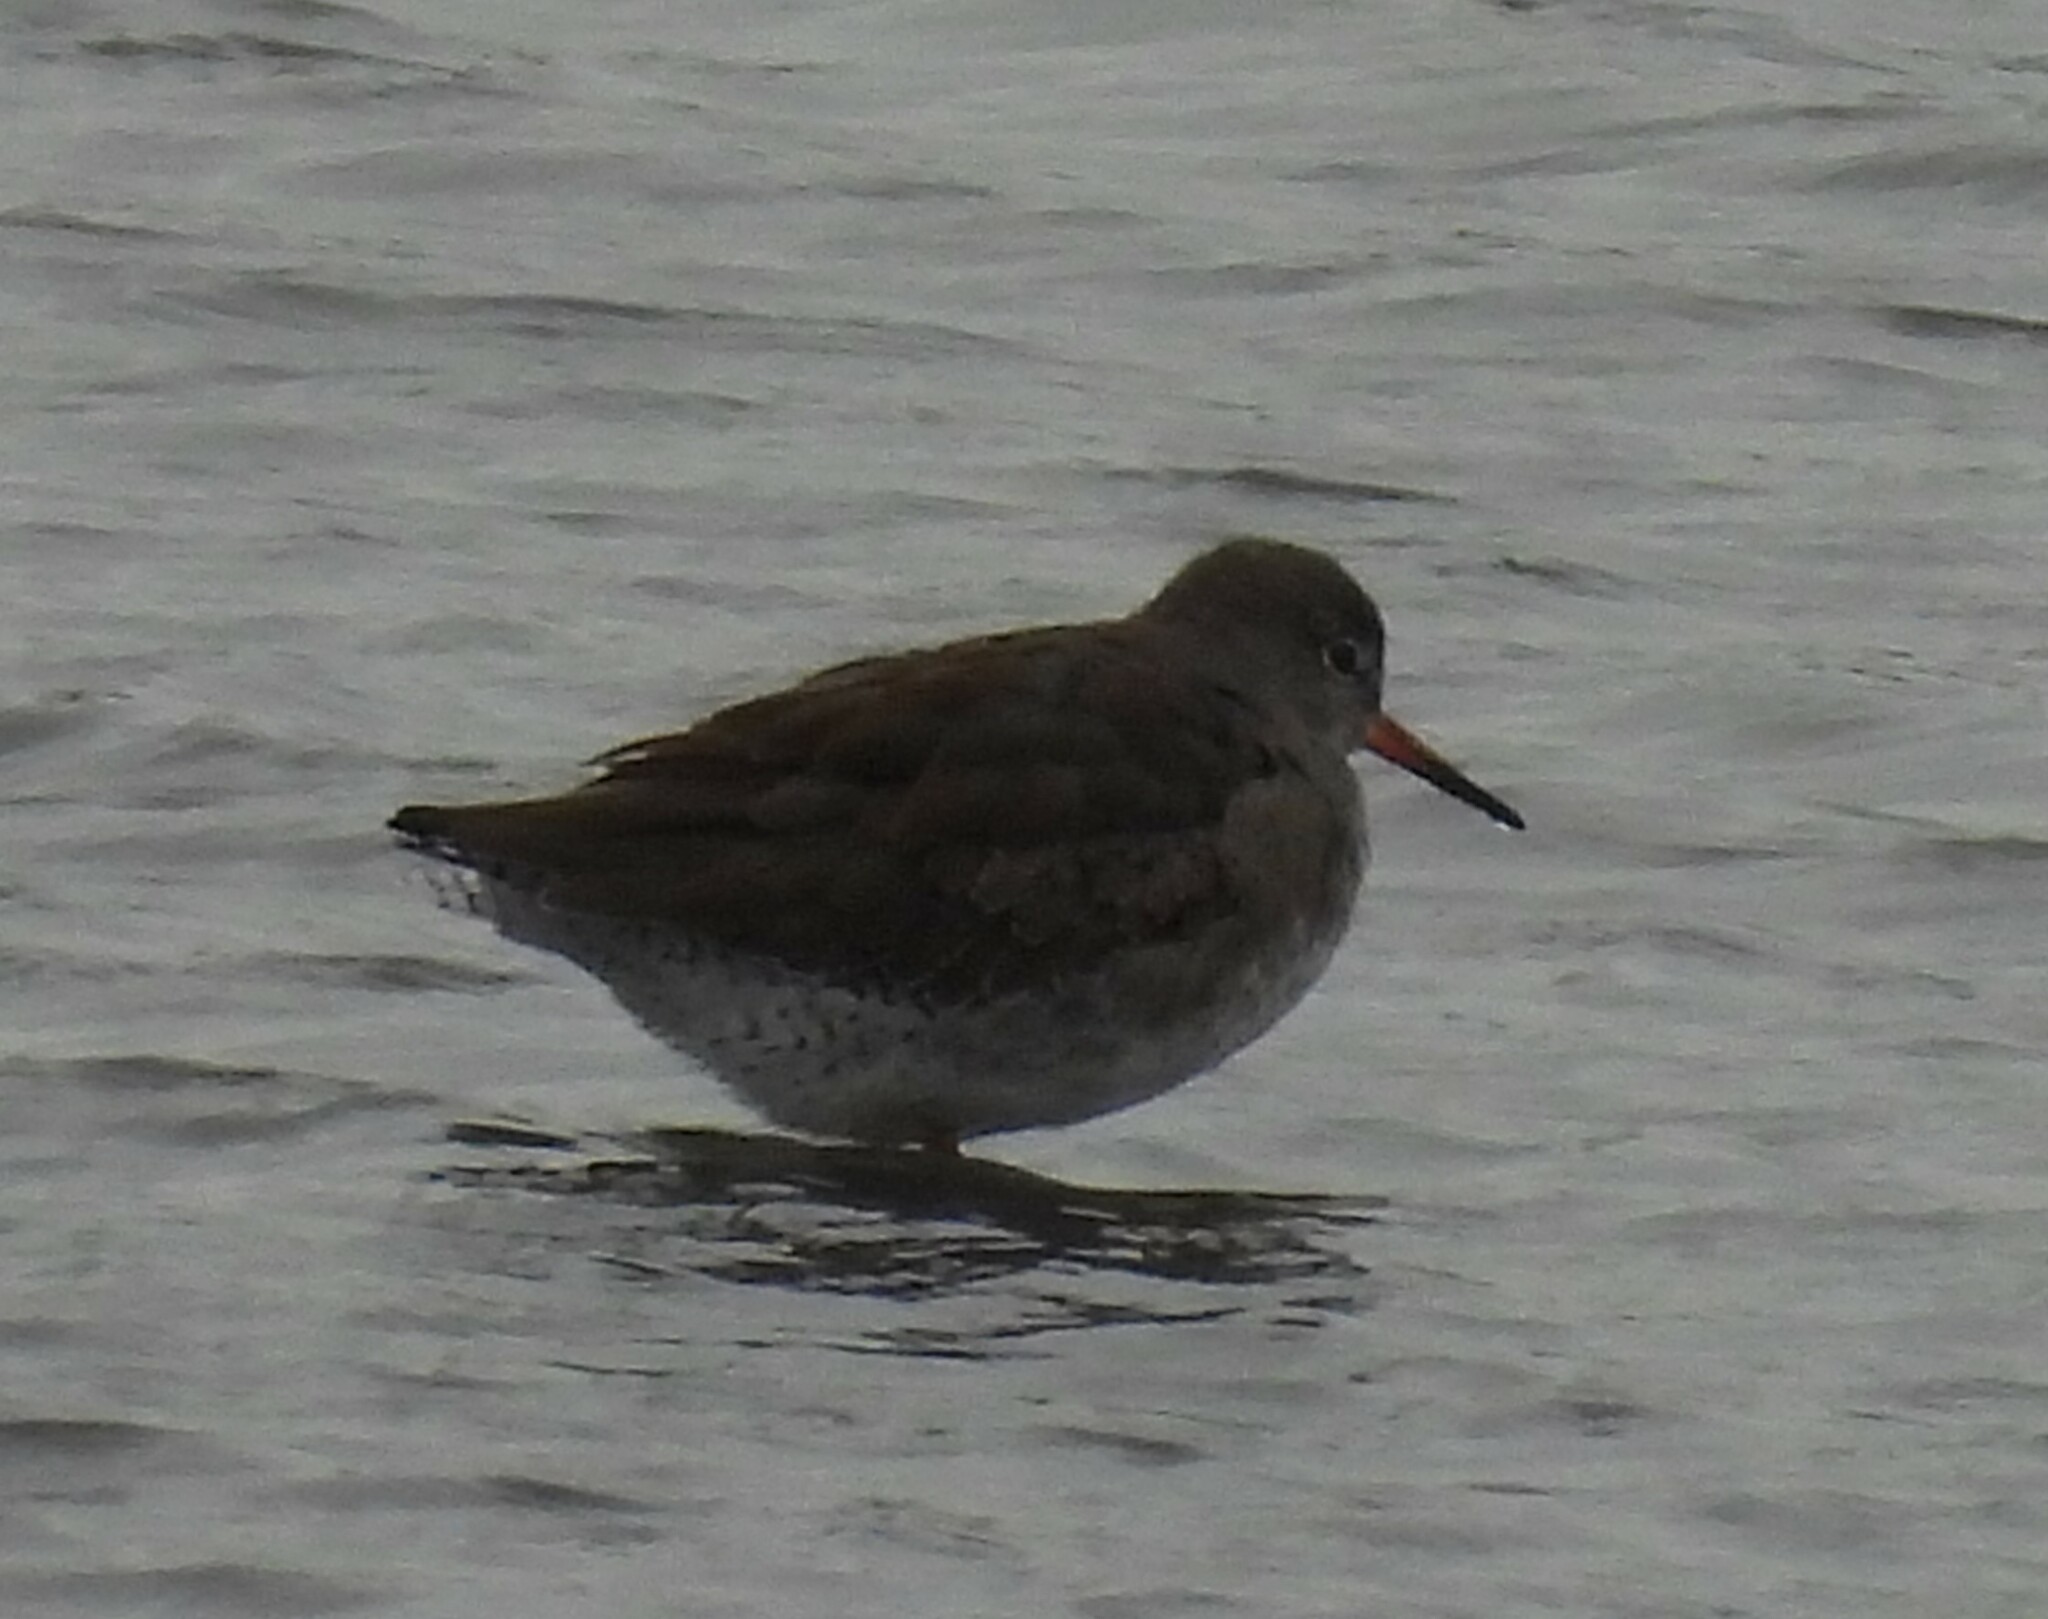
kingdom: Animalia
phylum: Chordata
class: Aves
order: Charadriiformes
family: Scolopacidae
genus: Tringa
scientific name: Tringa totanus
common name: Common redshank
